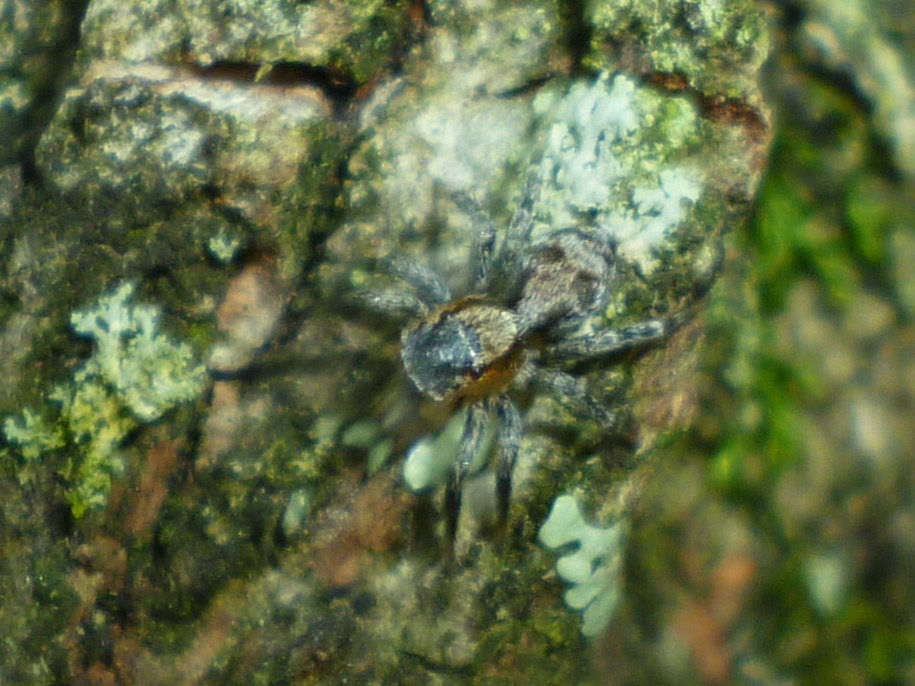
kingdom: Animalia
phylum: Arthropoda
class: Arachnida
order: Araneae
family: Salticidae
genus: Naphrys
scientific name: Naphrys pulex
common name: Flea jumping spider
